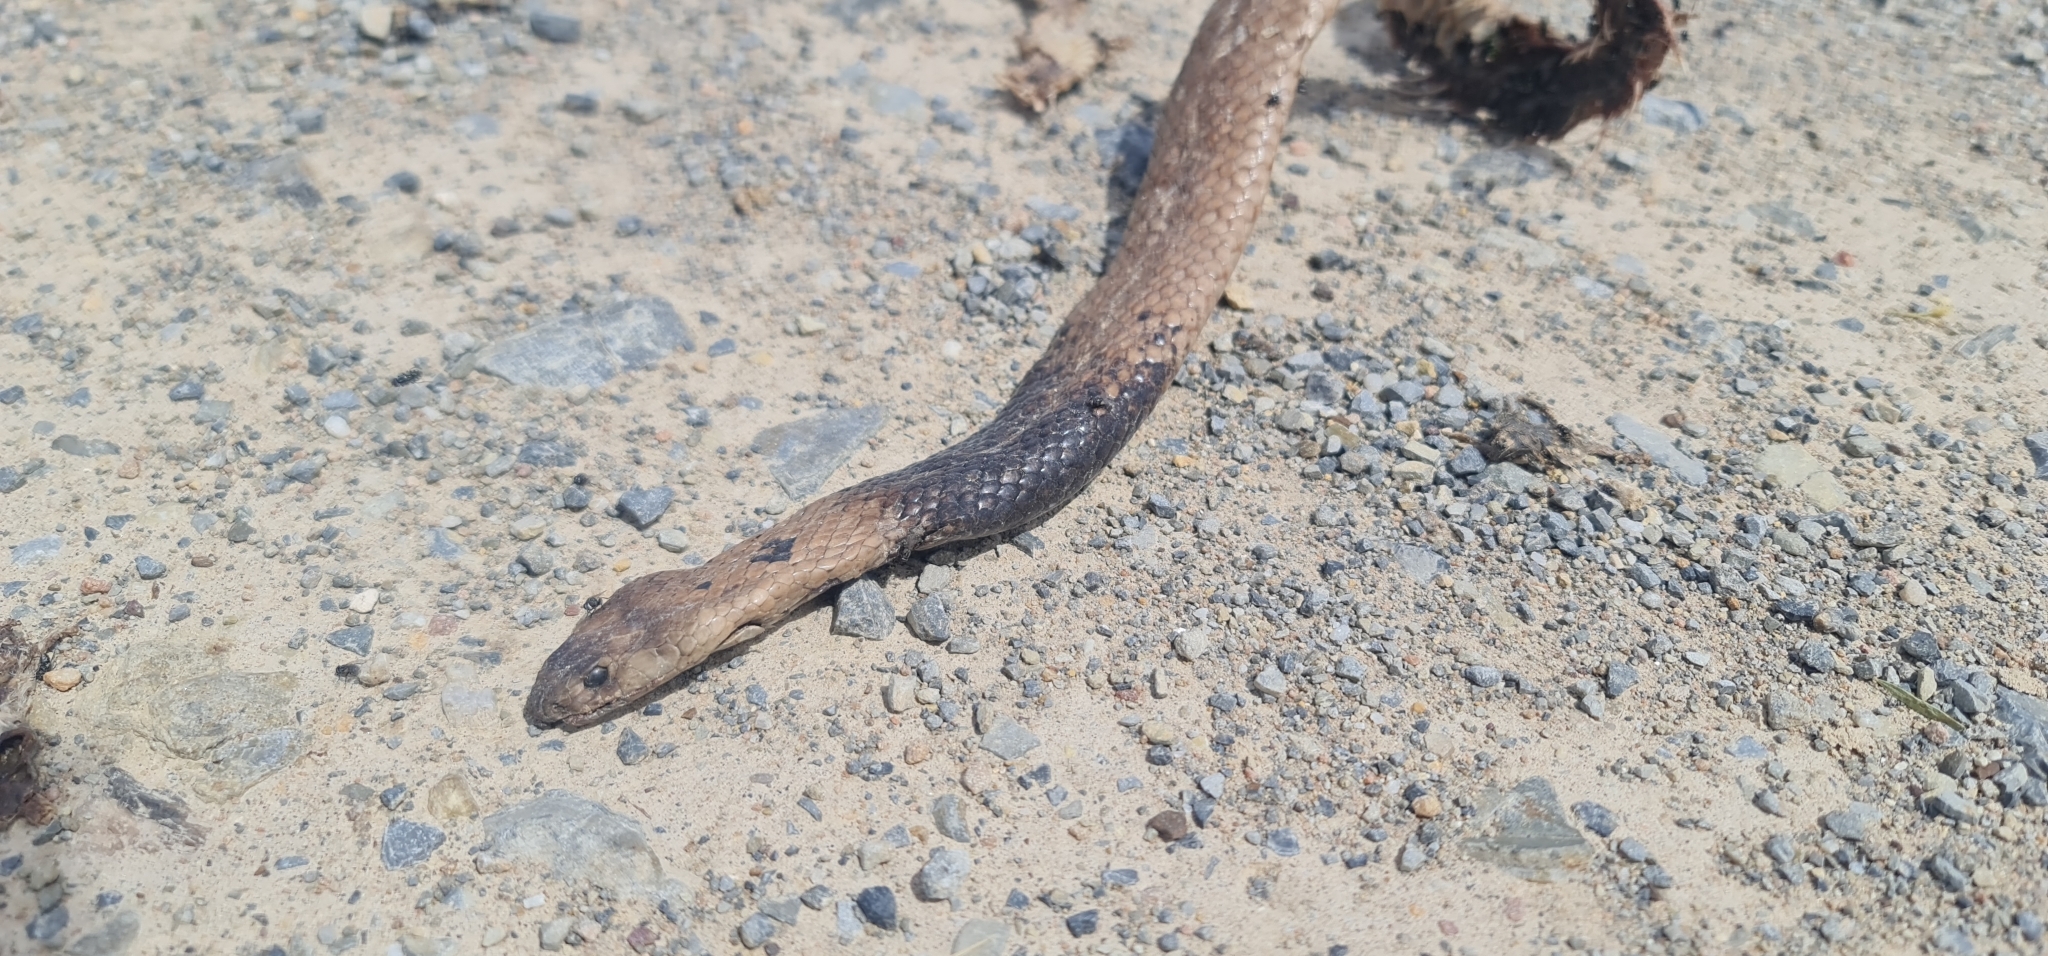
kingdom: Animalia
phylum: Chordata
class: Squamata
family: Elapidae
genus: Pseudonaja
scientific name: Pseudonaja aspidorhyncha
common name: Strap-snouted brown snake
